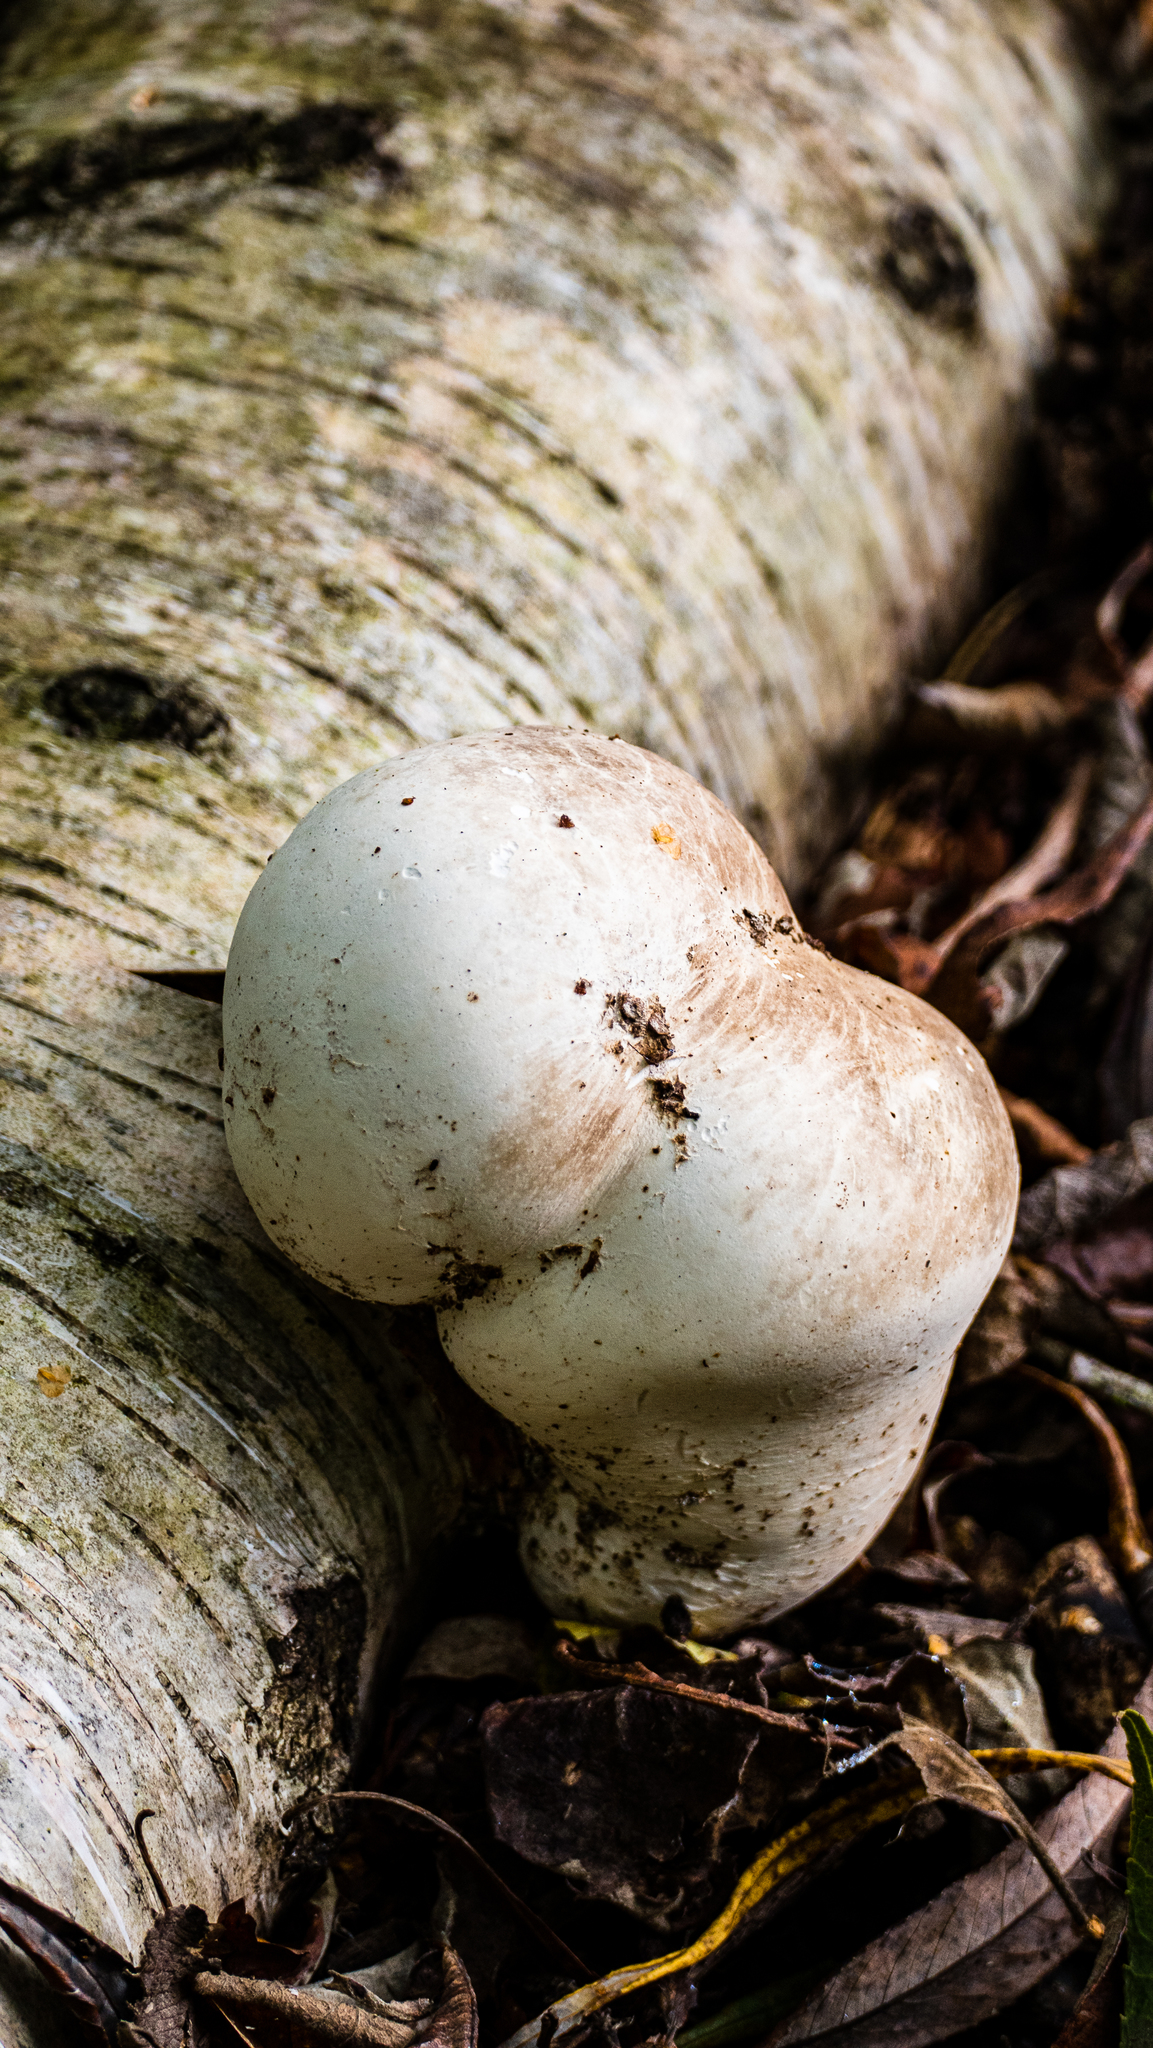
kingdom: Fungi
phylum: Basidiomycota
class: Agaricomycetes
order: Polyporales
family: Fomitopsidaceae
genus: Fomitopsis
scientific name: Fomitopsis betulina
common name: Birch polypore
